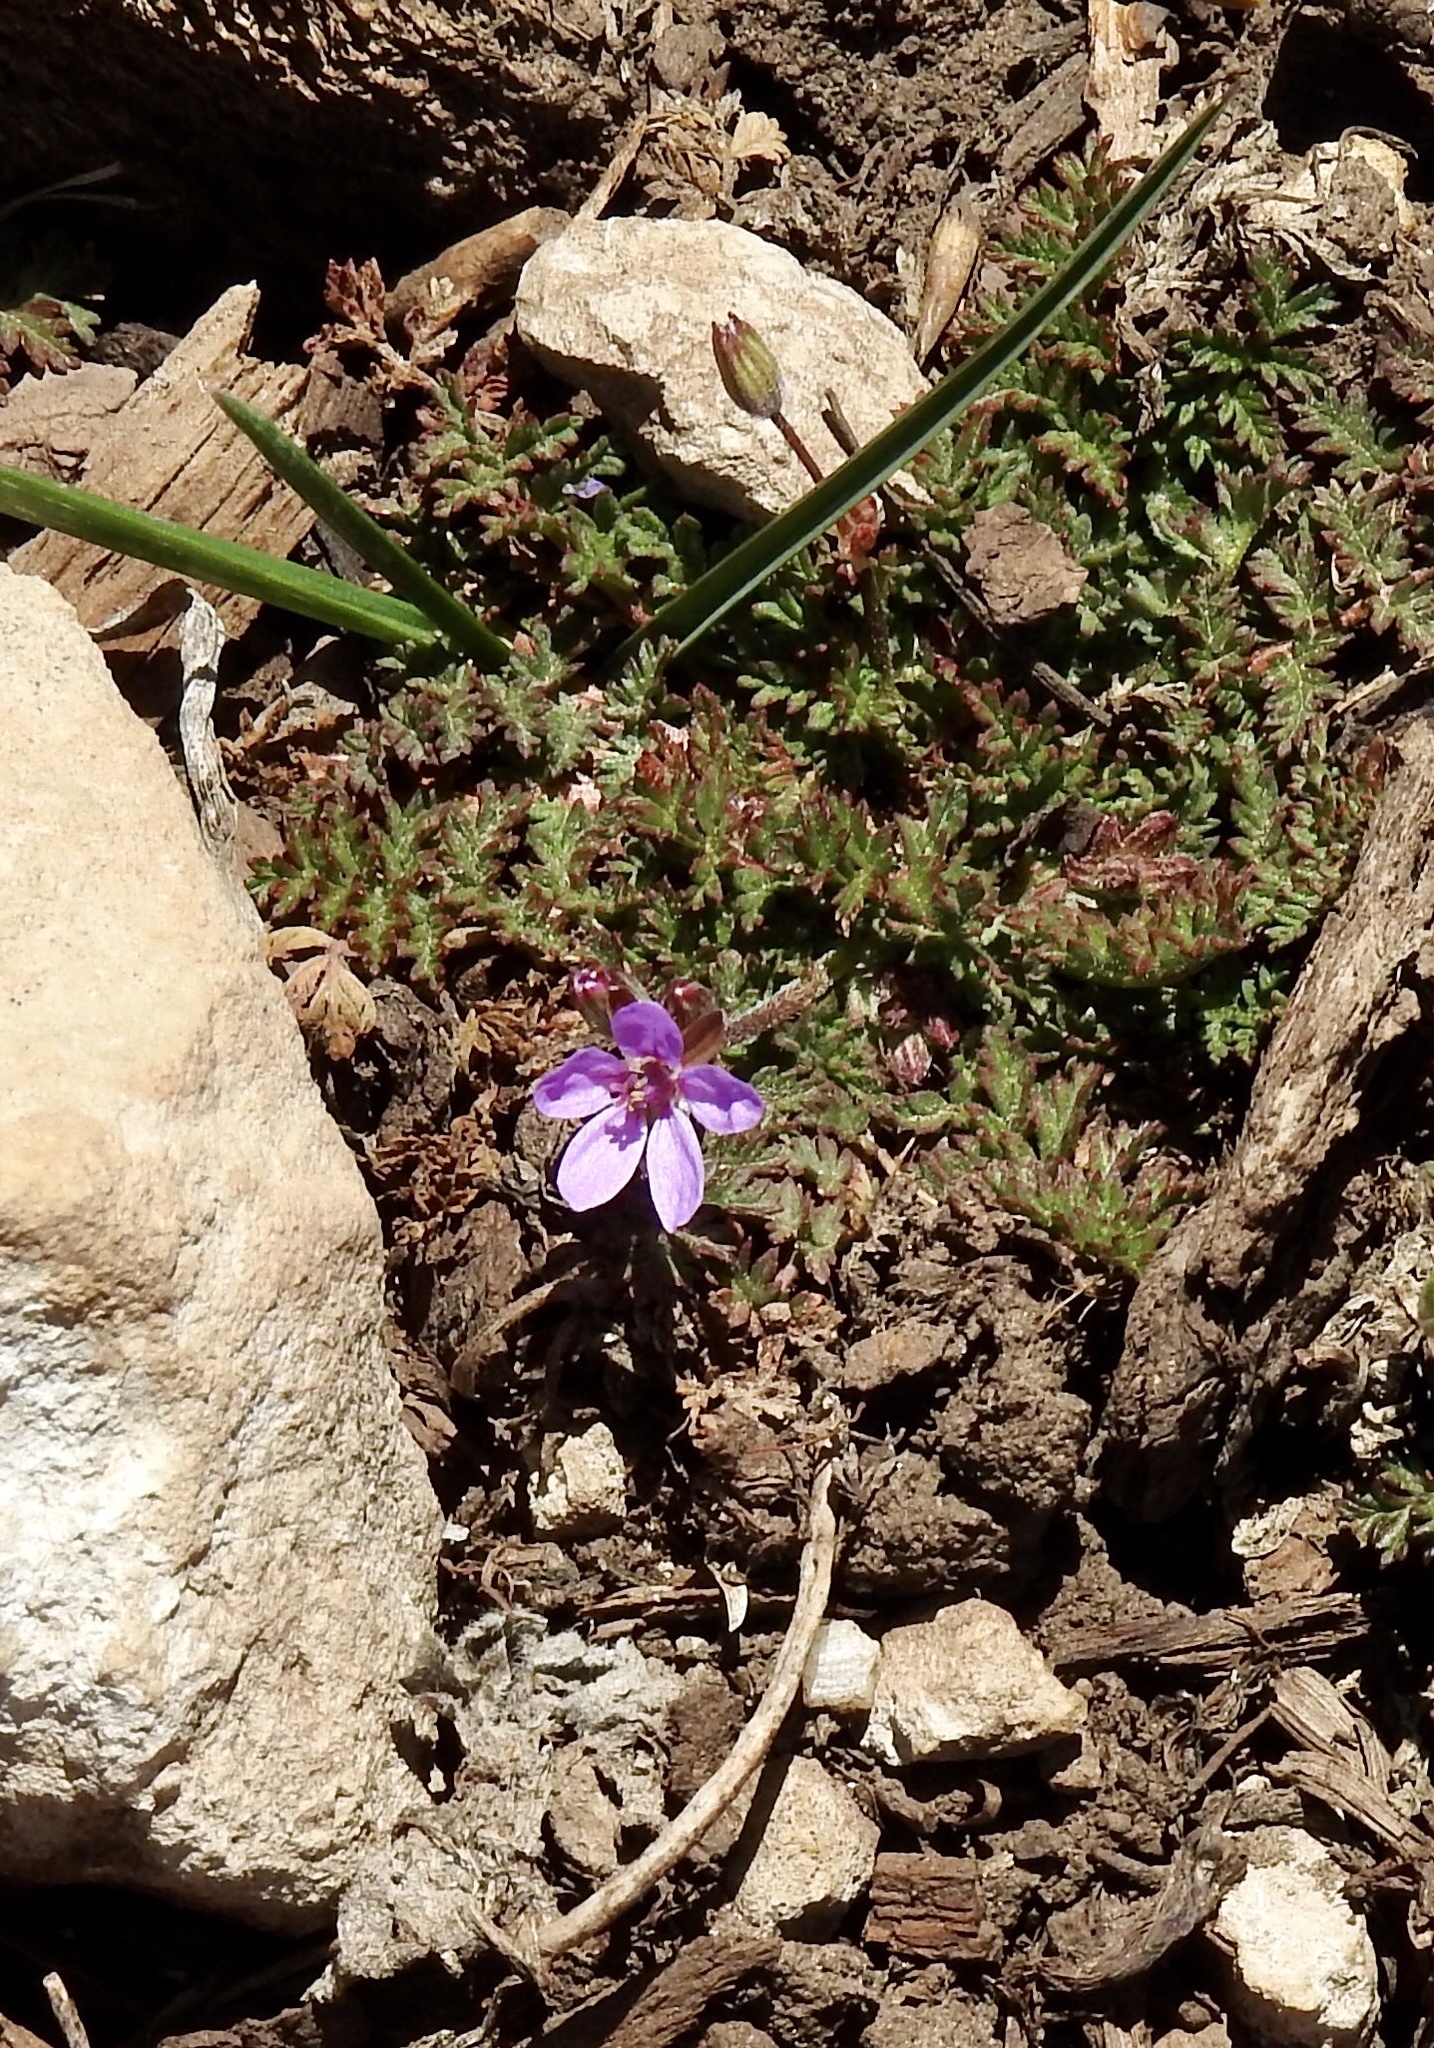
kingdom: Plantae
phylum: Tracheophyta
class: Magnoliopsida
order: Geraniales
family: Geraniaceae
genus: Erodium
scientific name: Erodium cicutarium
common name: Common stork's-bill
